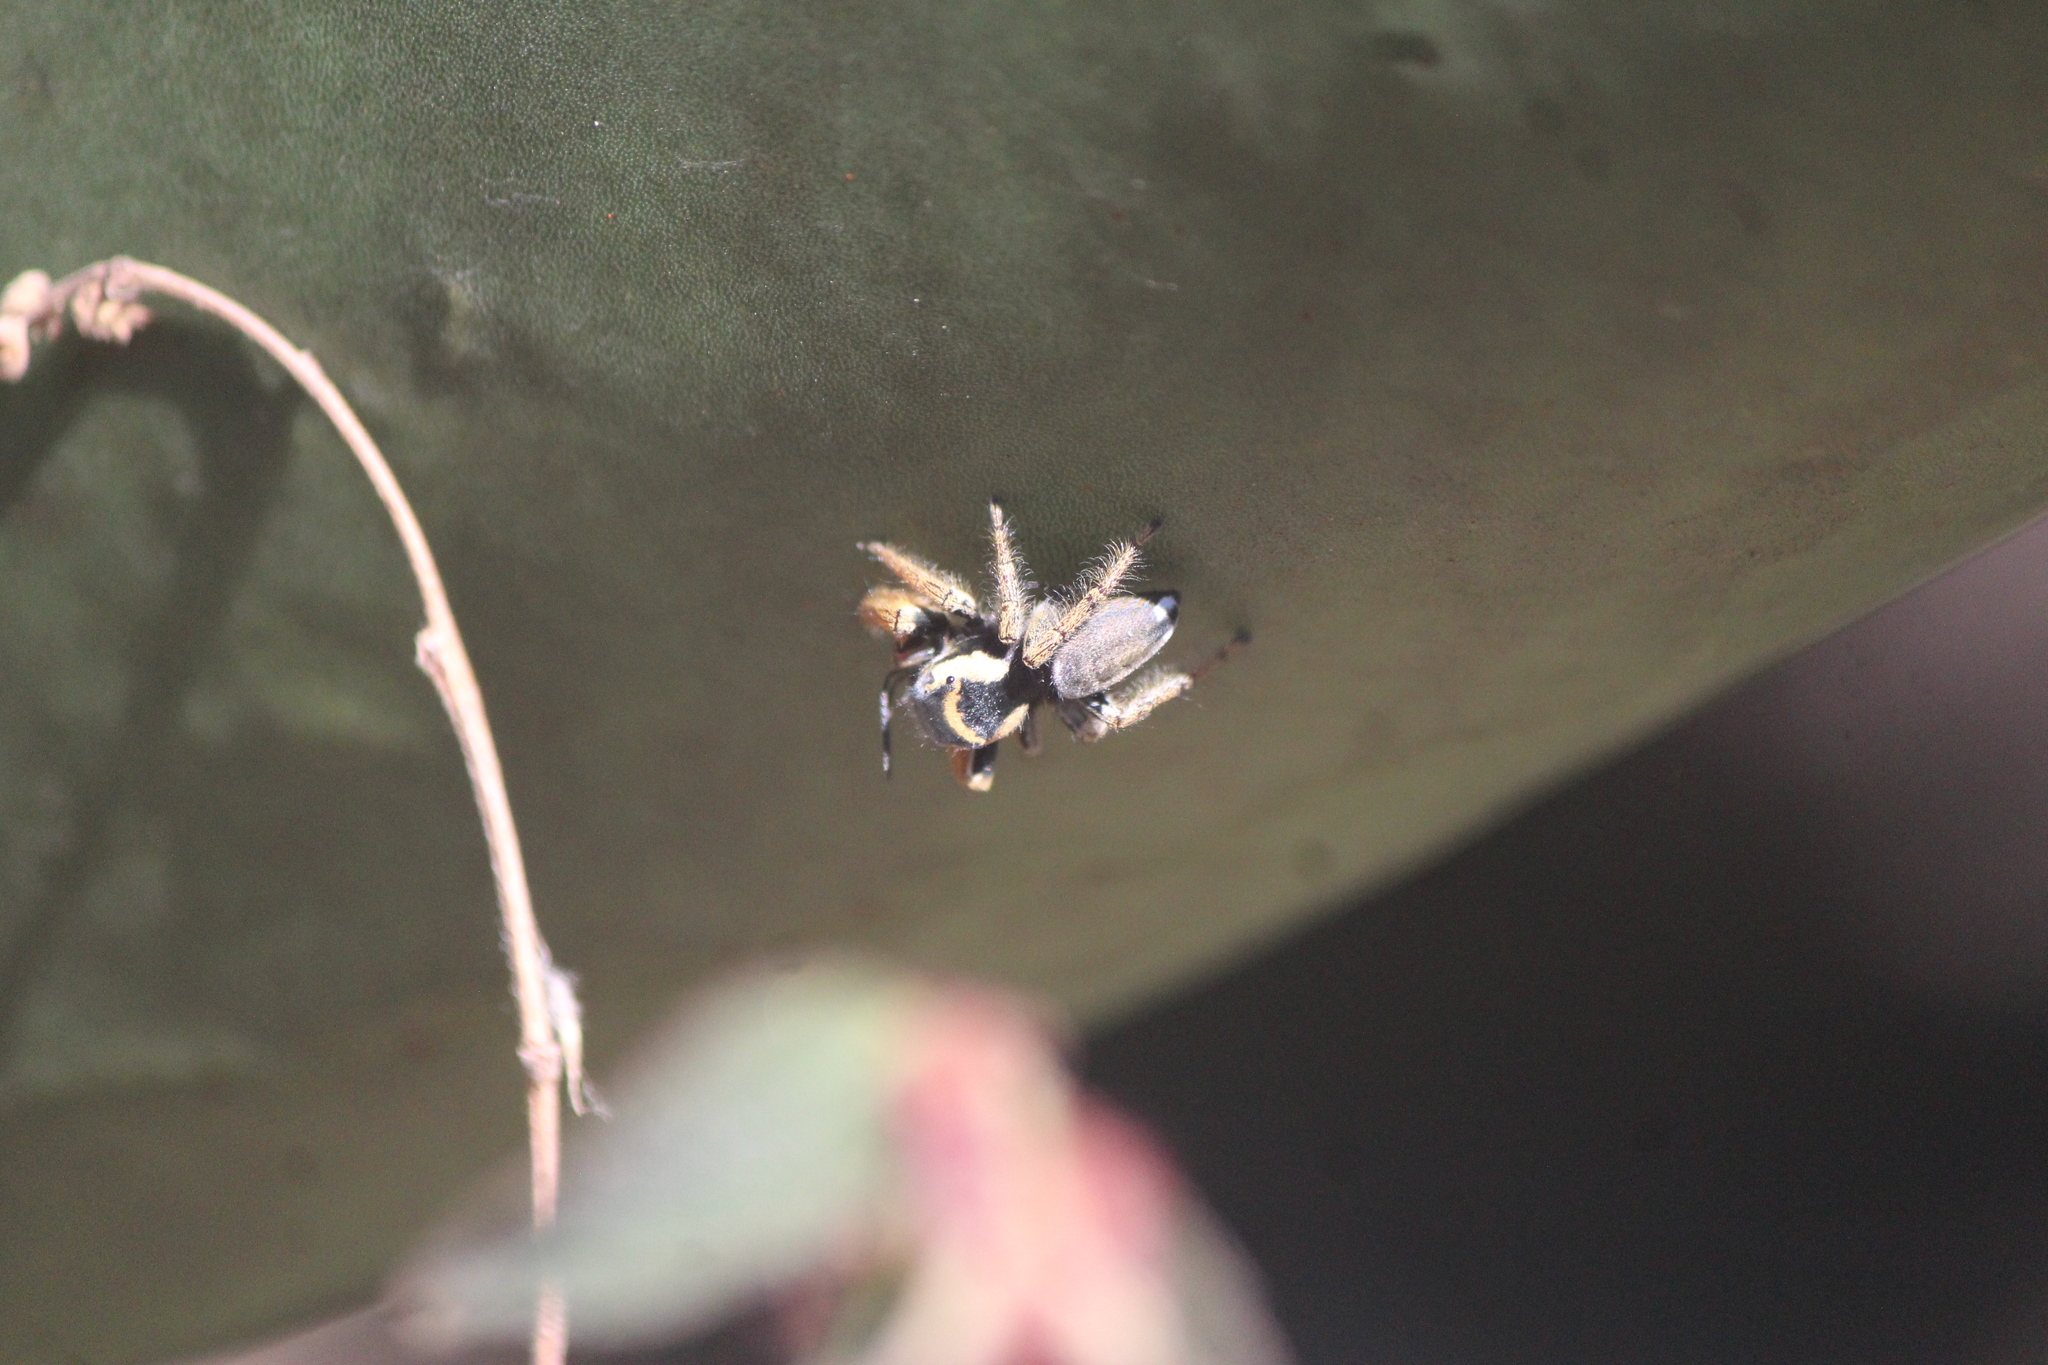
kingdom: Animalia
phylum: Arthropoda
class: Arachnida
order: Araneae
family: Salticidae
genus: Phidippus
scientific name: Phidippus arizonensis
